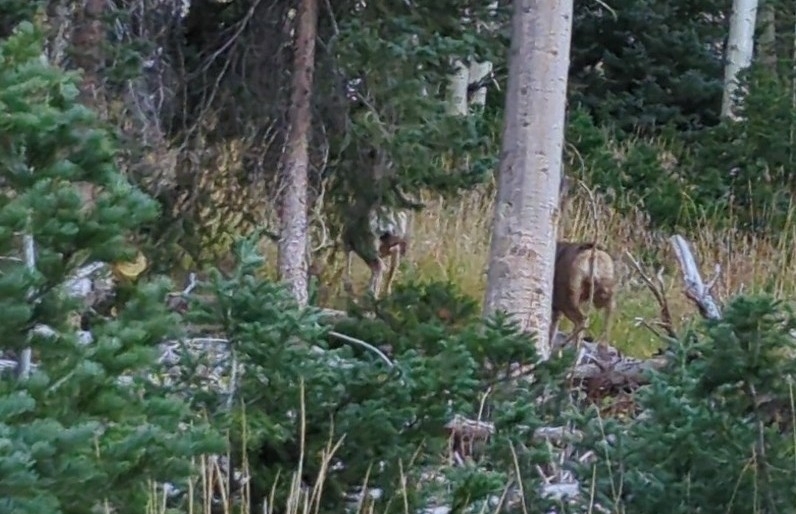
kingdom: Animalia
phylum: Chordata
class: Mammalia
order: Artiodactyla
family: Cervidae
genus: Odocoileus
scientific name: Odocoileus hemionus
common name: Mule deer
